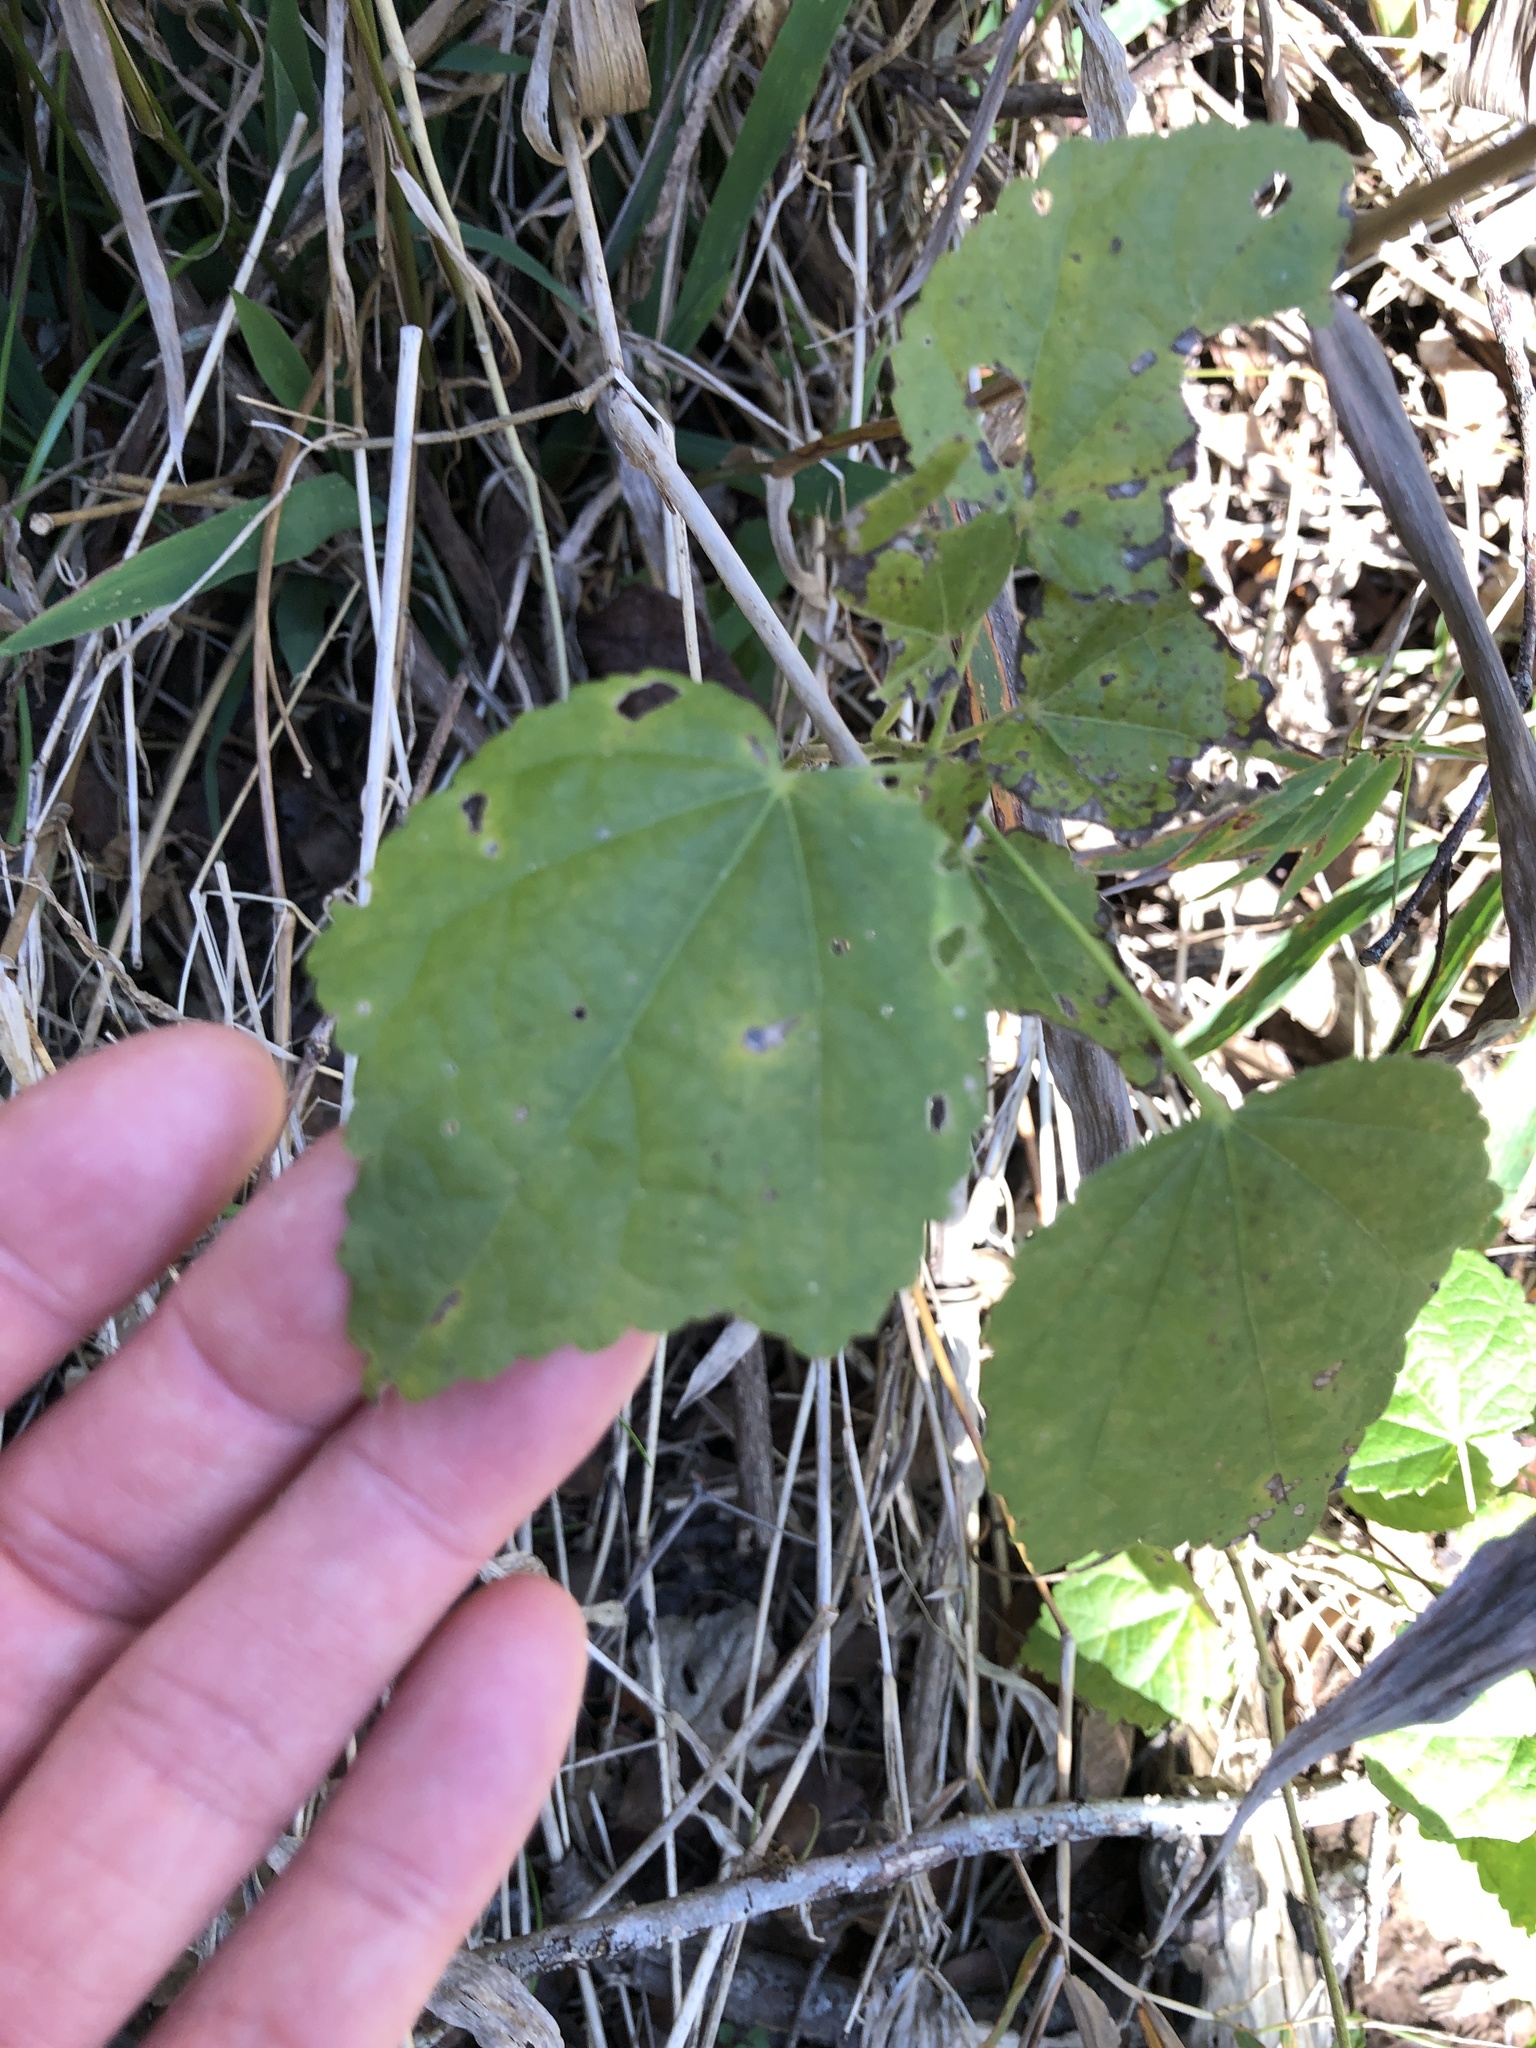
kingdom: Plantae
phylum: Tracheophyta
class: Magnoliopsida
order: Malvales
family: Malvaceae
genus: Malvaviscus
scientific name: Malvaviscus arboreus
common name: Wax mallow
